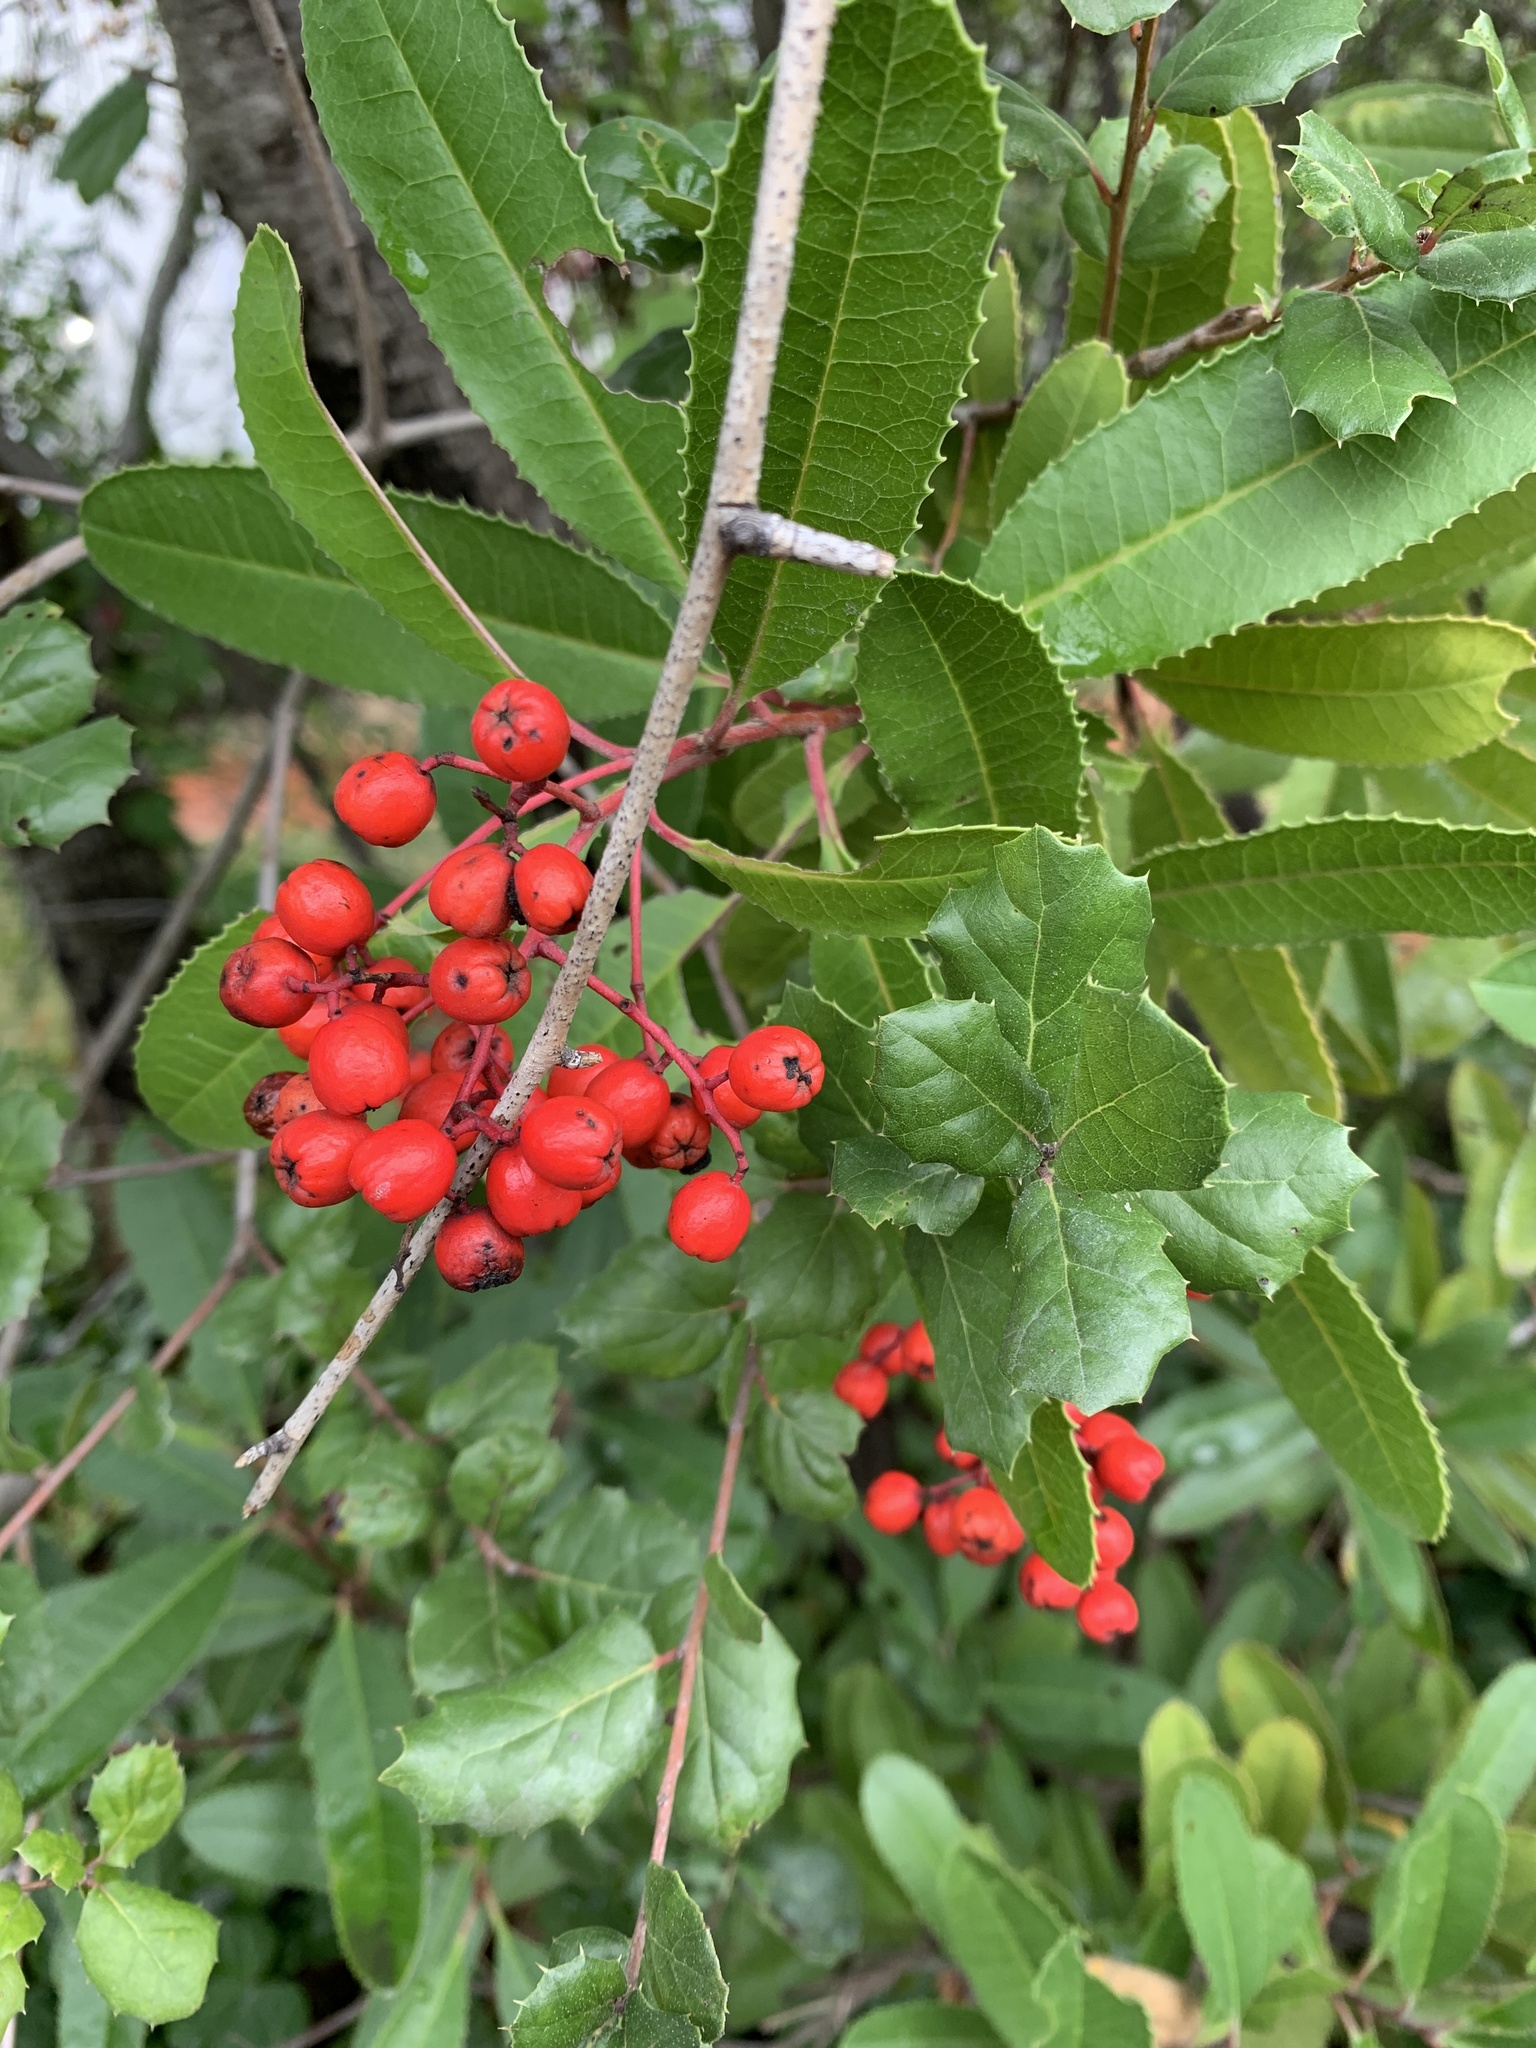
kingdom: Plantae
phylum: Tracheophyta
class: Magnoliopsida
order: Rosales
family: Rosaceae
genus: Heteromeles
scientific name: Heteromeles arbutifolia
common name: California-holly
